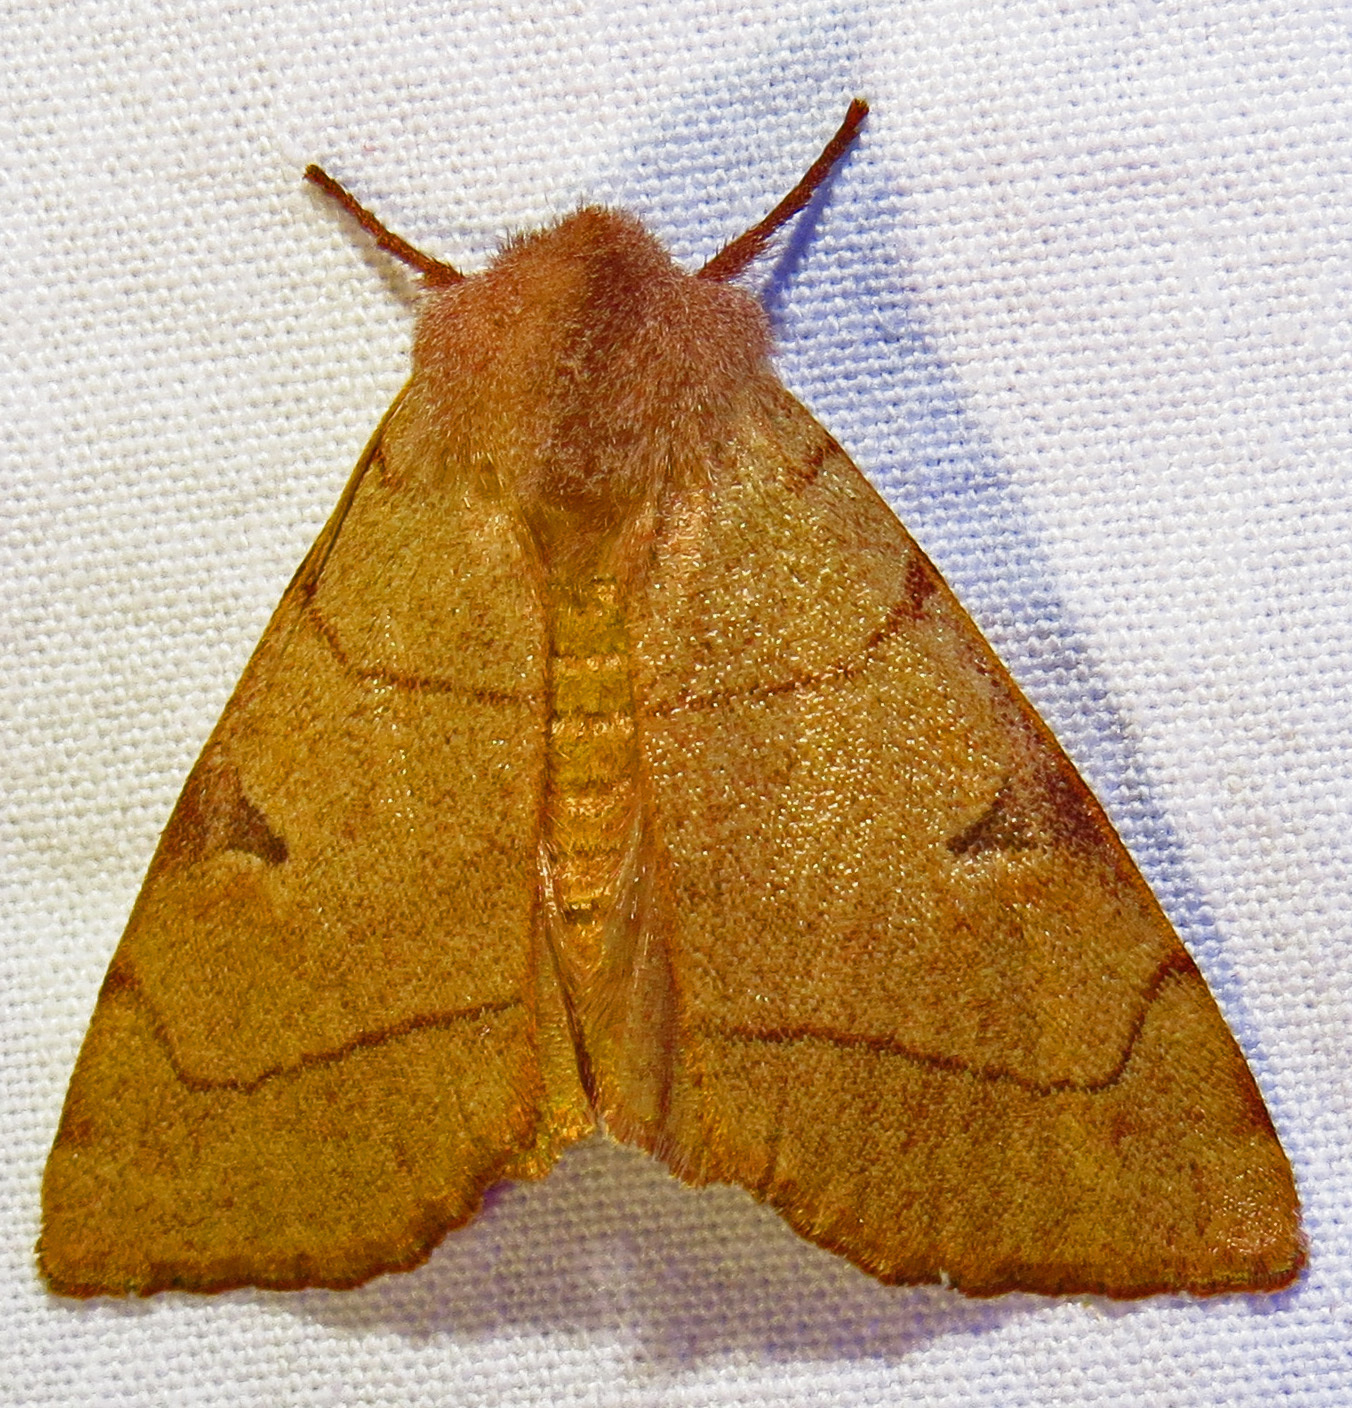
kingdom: Animalia
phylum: Arthropoda
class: Insecta
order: Lepidoptera
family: Noctuidae
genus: Choephora
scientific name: Choephora fungorum
